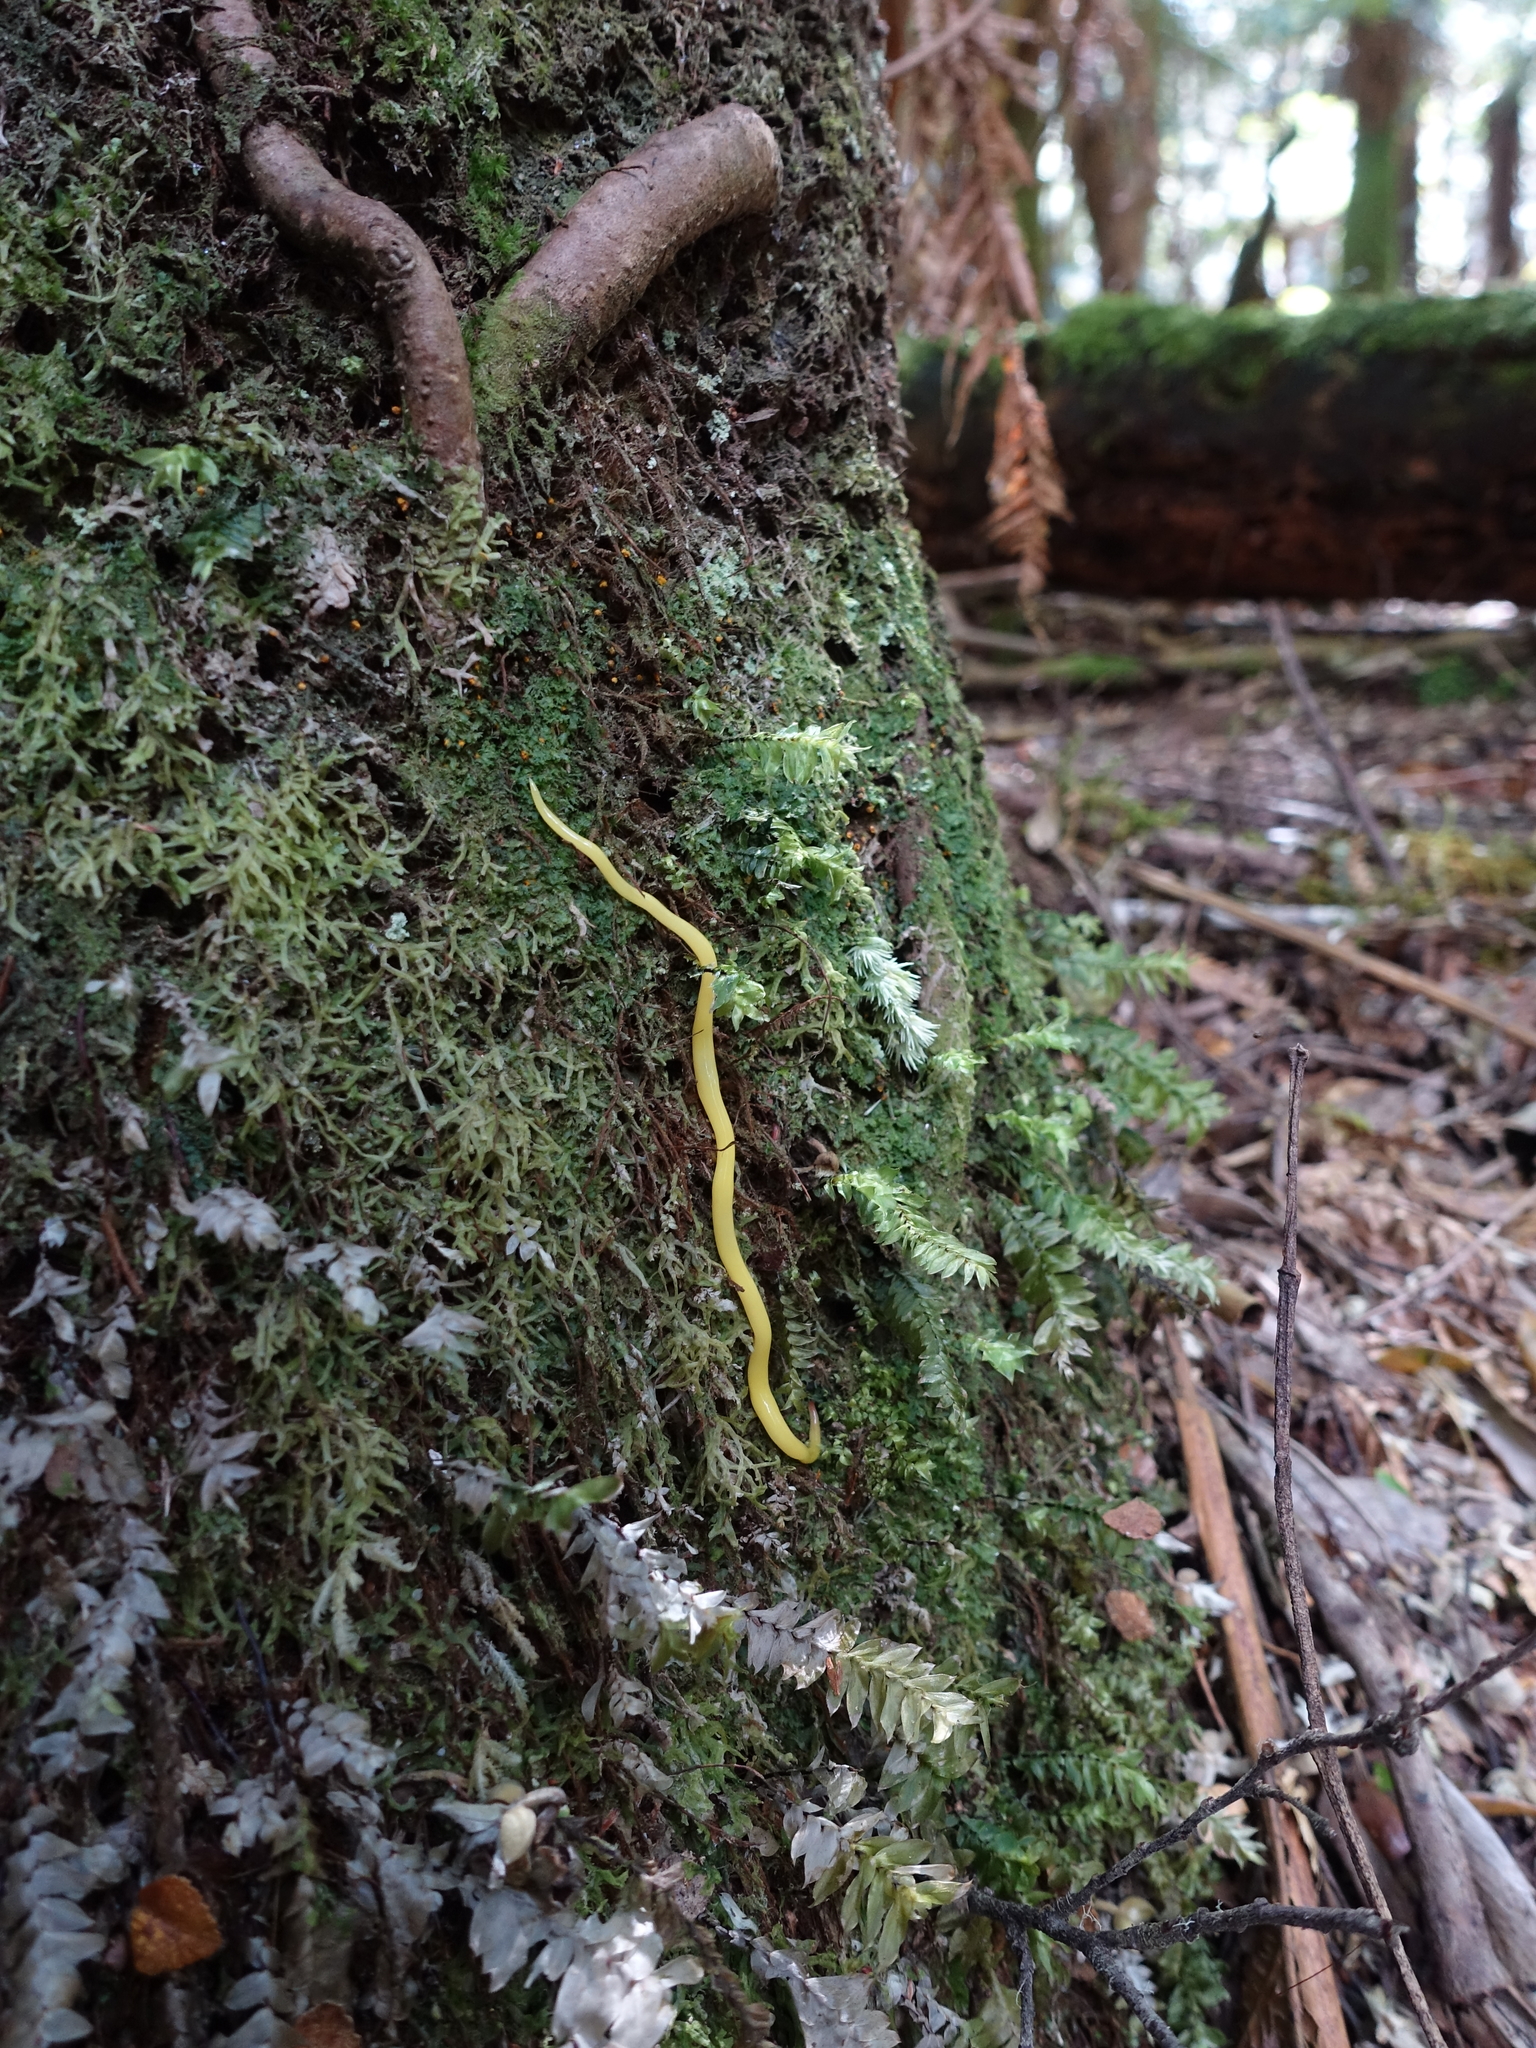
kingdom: Animalia
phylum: Platyhelminthes
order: Tricladida
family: Geoplanidae
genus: Fletchamia
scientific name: Fletchamia sugdeni
